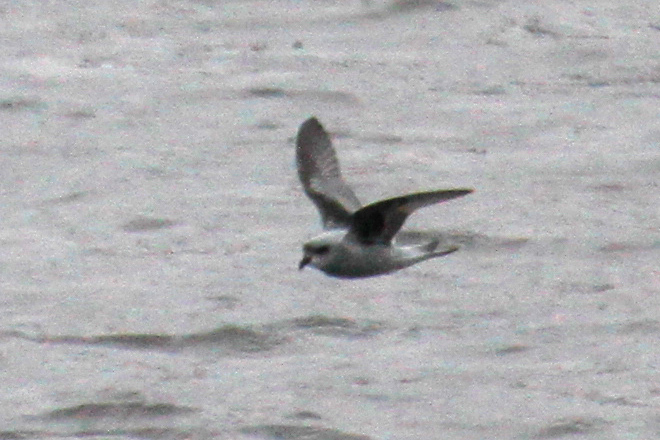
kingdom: Animalia
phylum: Chordata
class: Aves
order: Procellariiformes
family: Hydrobatidae
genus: Oceanodroma
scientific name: Oceanodroma furcata
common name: Fork-tailed storm-petrel
